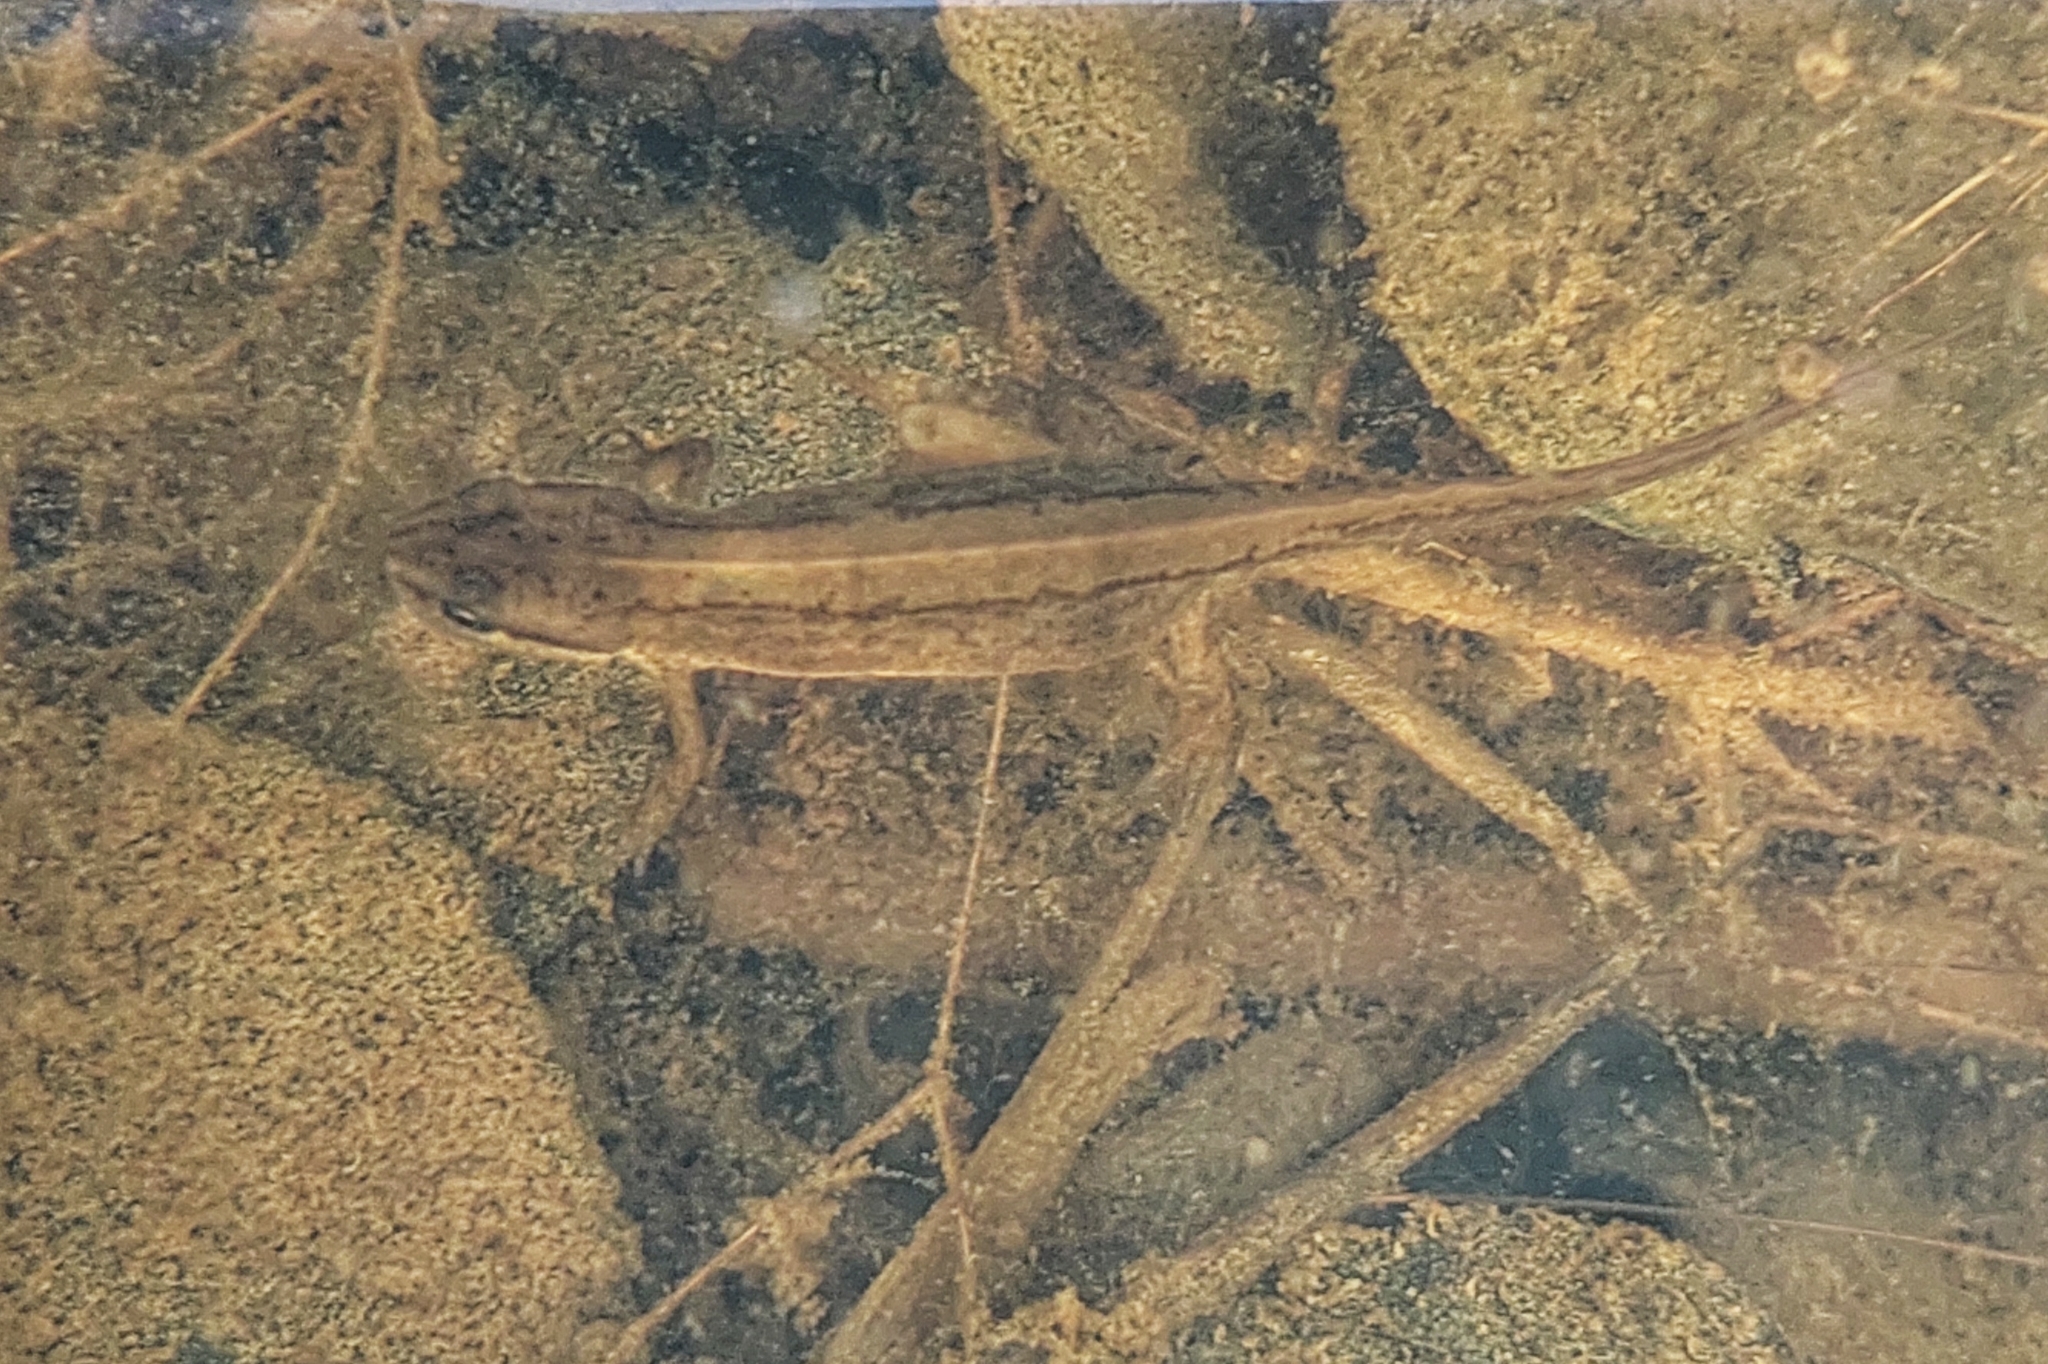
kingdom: Animalia
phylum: Chordata
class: Amphibia
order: Caudata
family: Salamandridae
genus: Lissotriton
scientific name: Lissotriton lantzi
